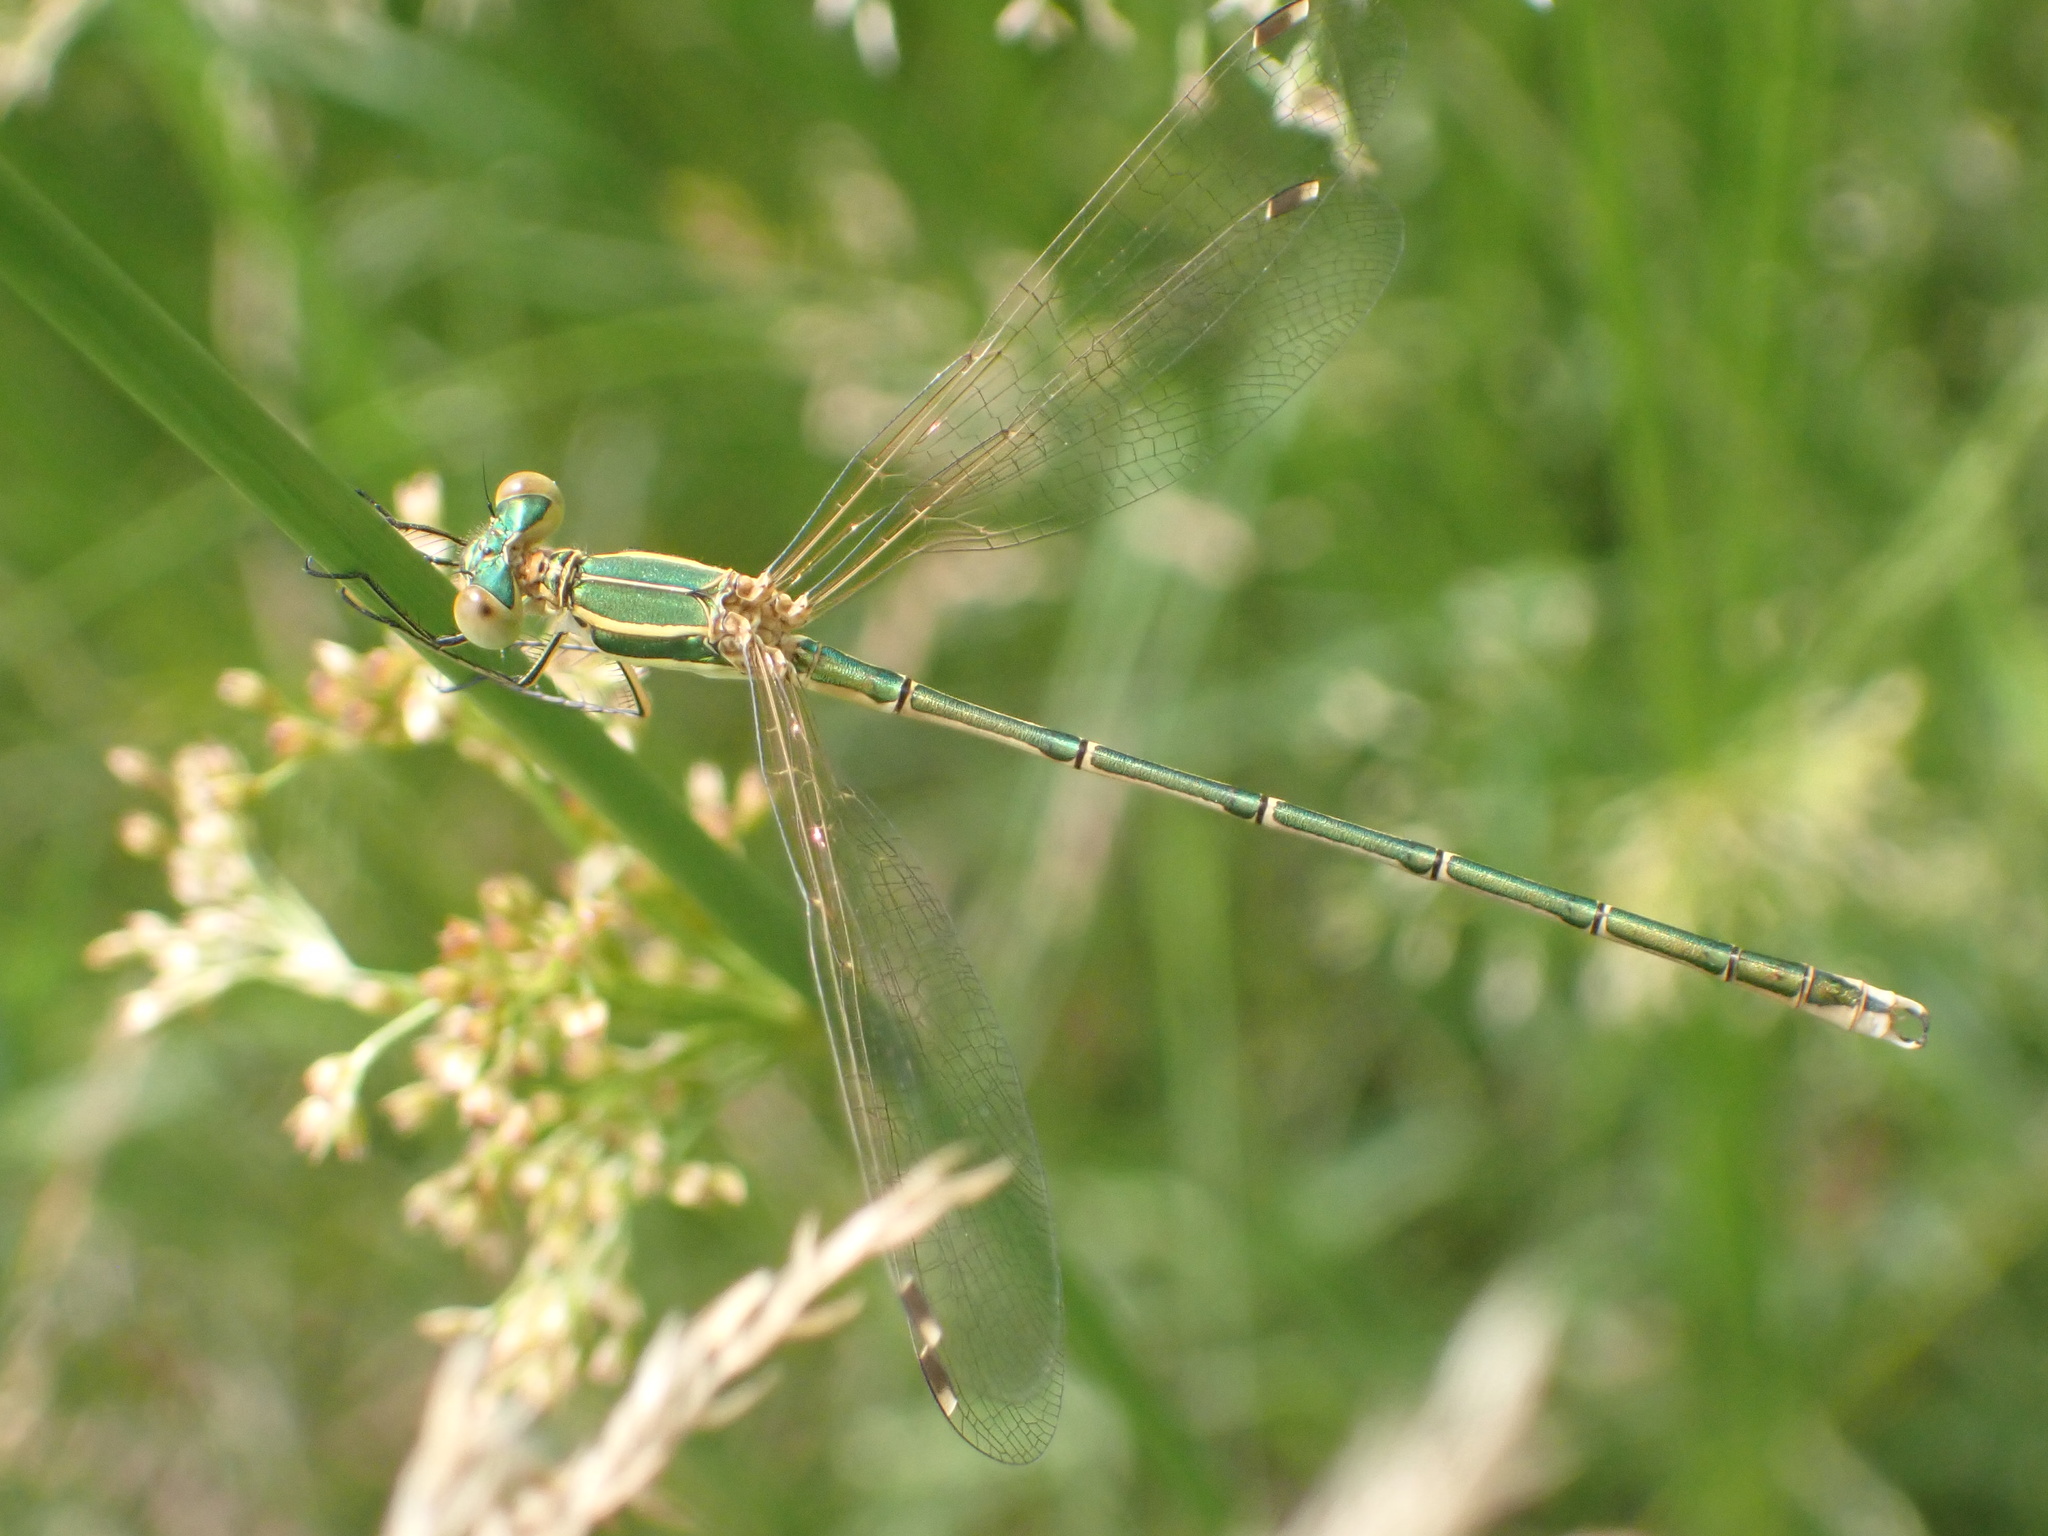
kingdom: Animalia
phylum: Arthropoda
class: Insecta
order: Odonata
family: Lestidae
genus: Lestes
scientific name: Lestes barbarus
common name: Migrant spreadwing
